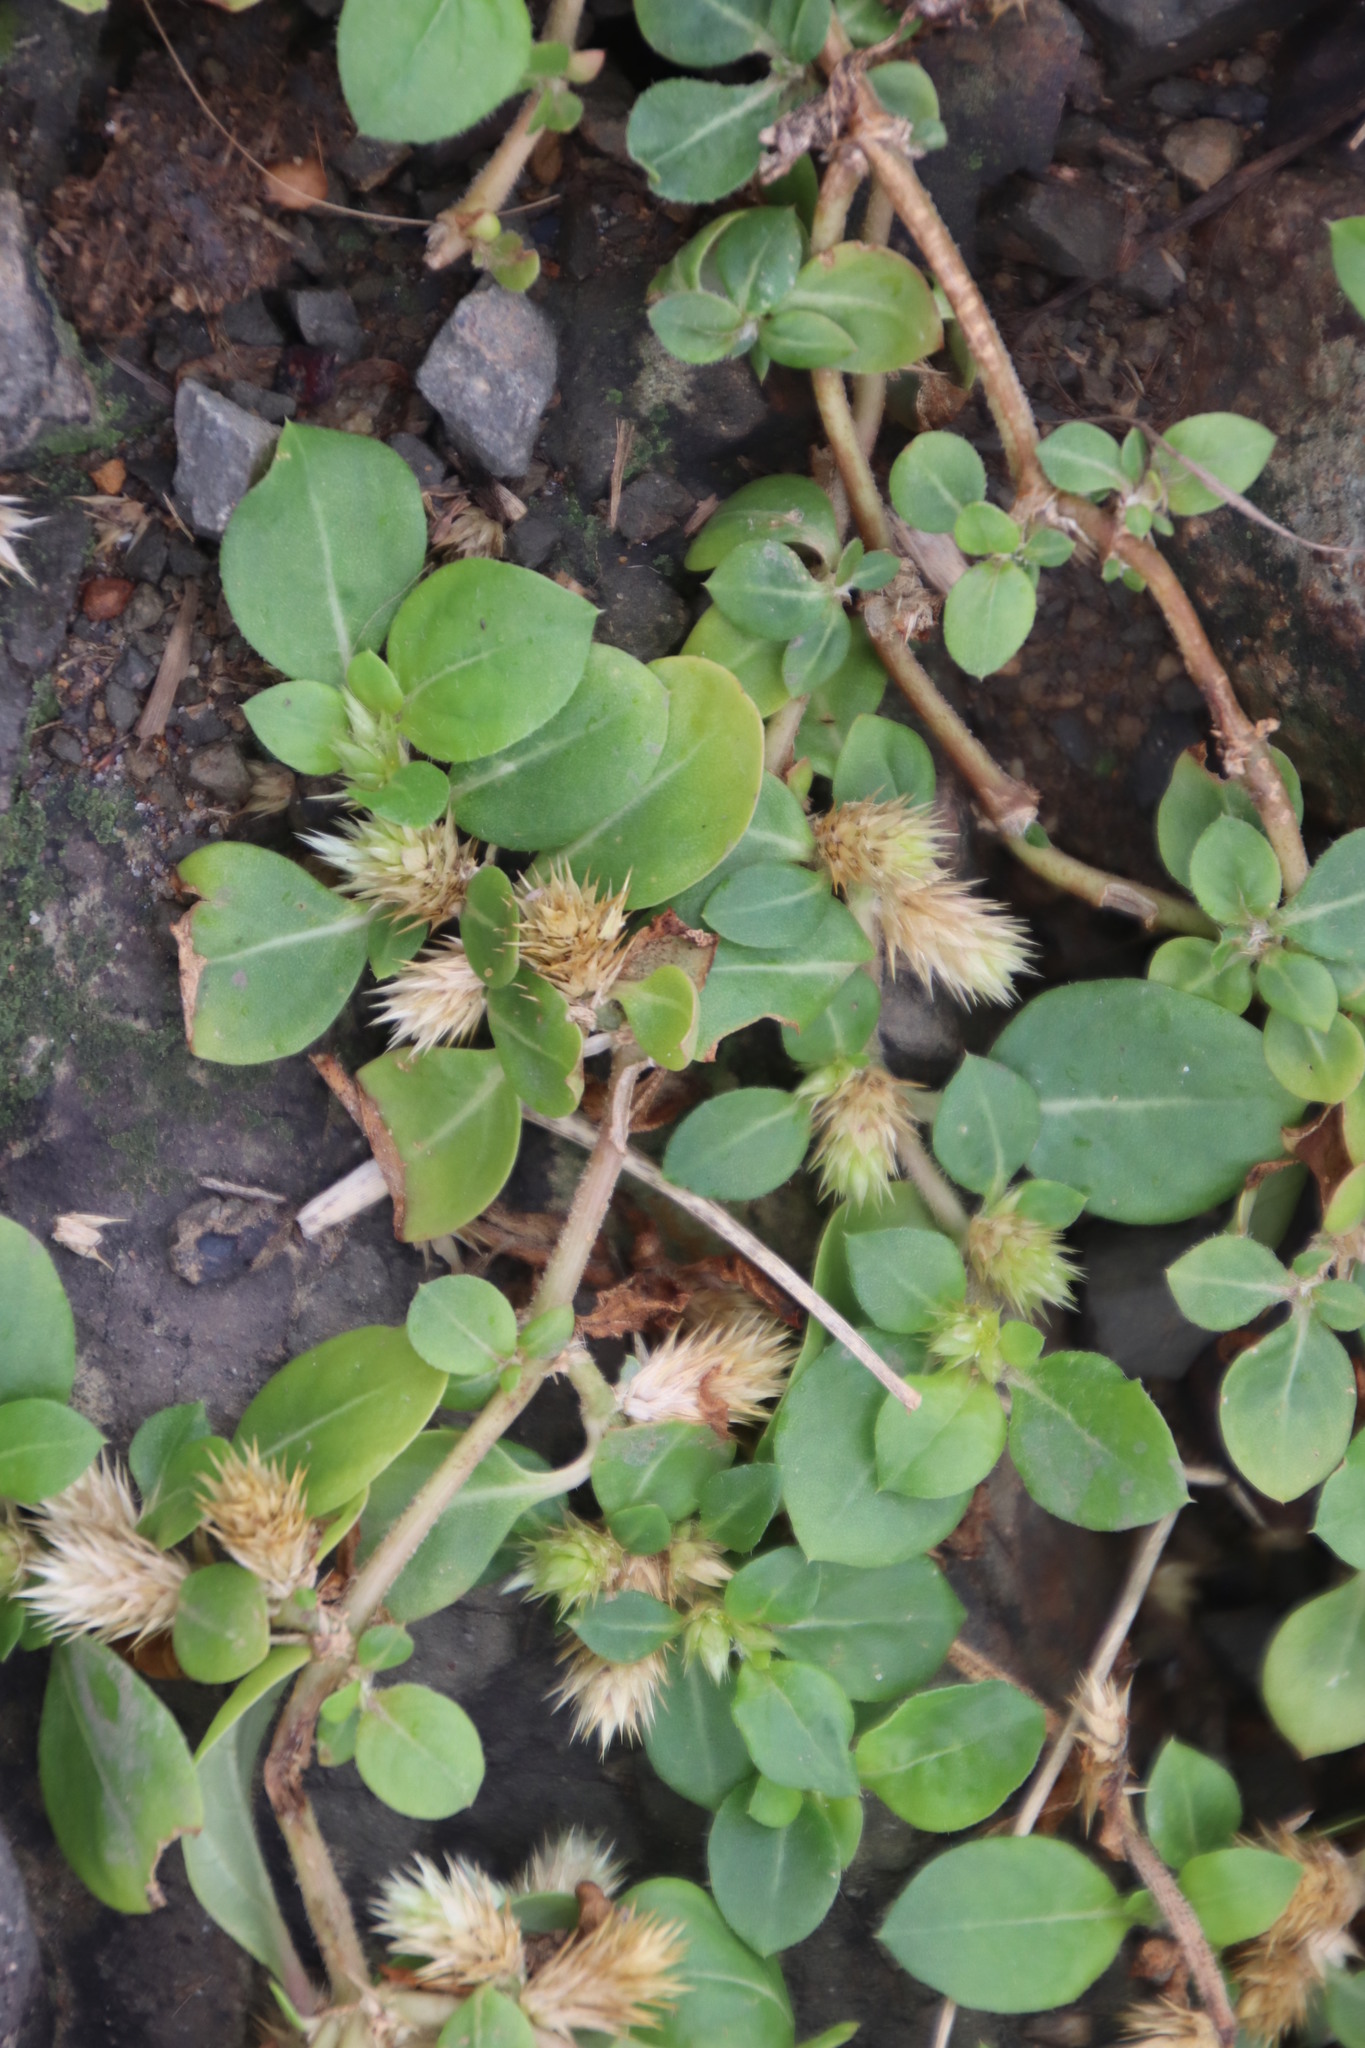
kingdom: Plantae
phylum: Tracheophyta
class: Magnoliopsida
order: Caryophyllales
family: Amaranthaceae
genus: Alternanthera
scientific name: Alternanthera pungens
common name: Khakiweed
